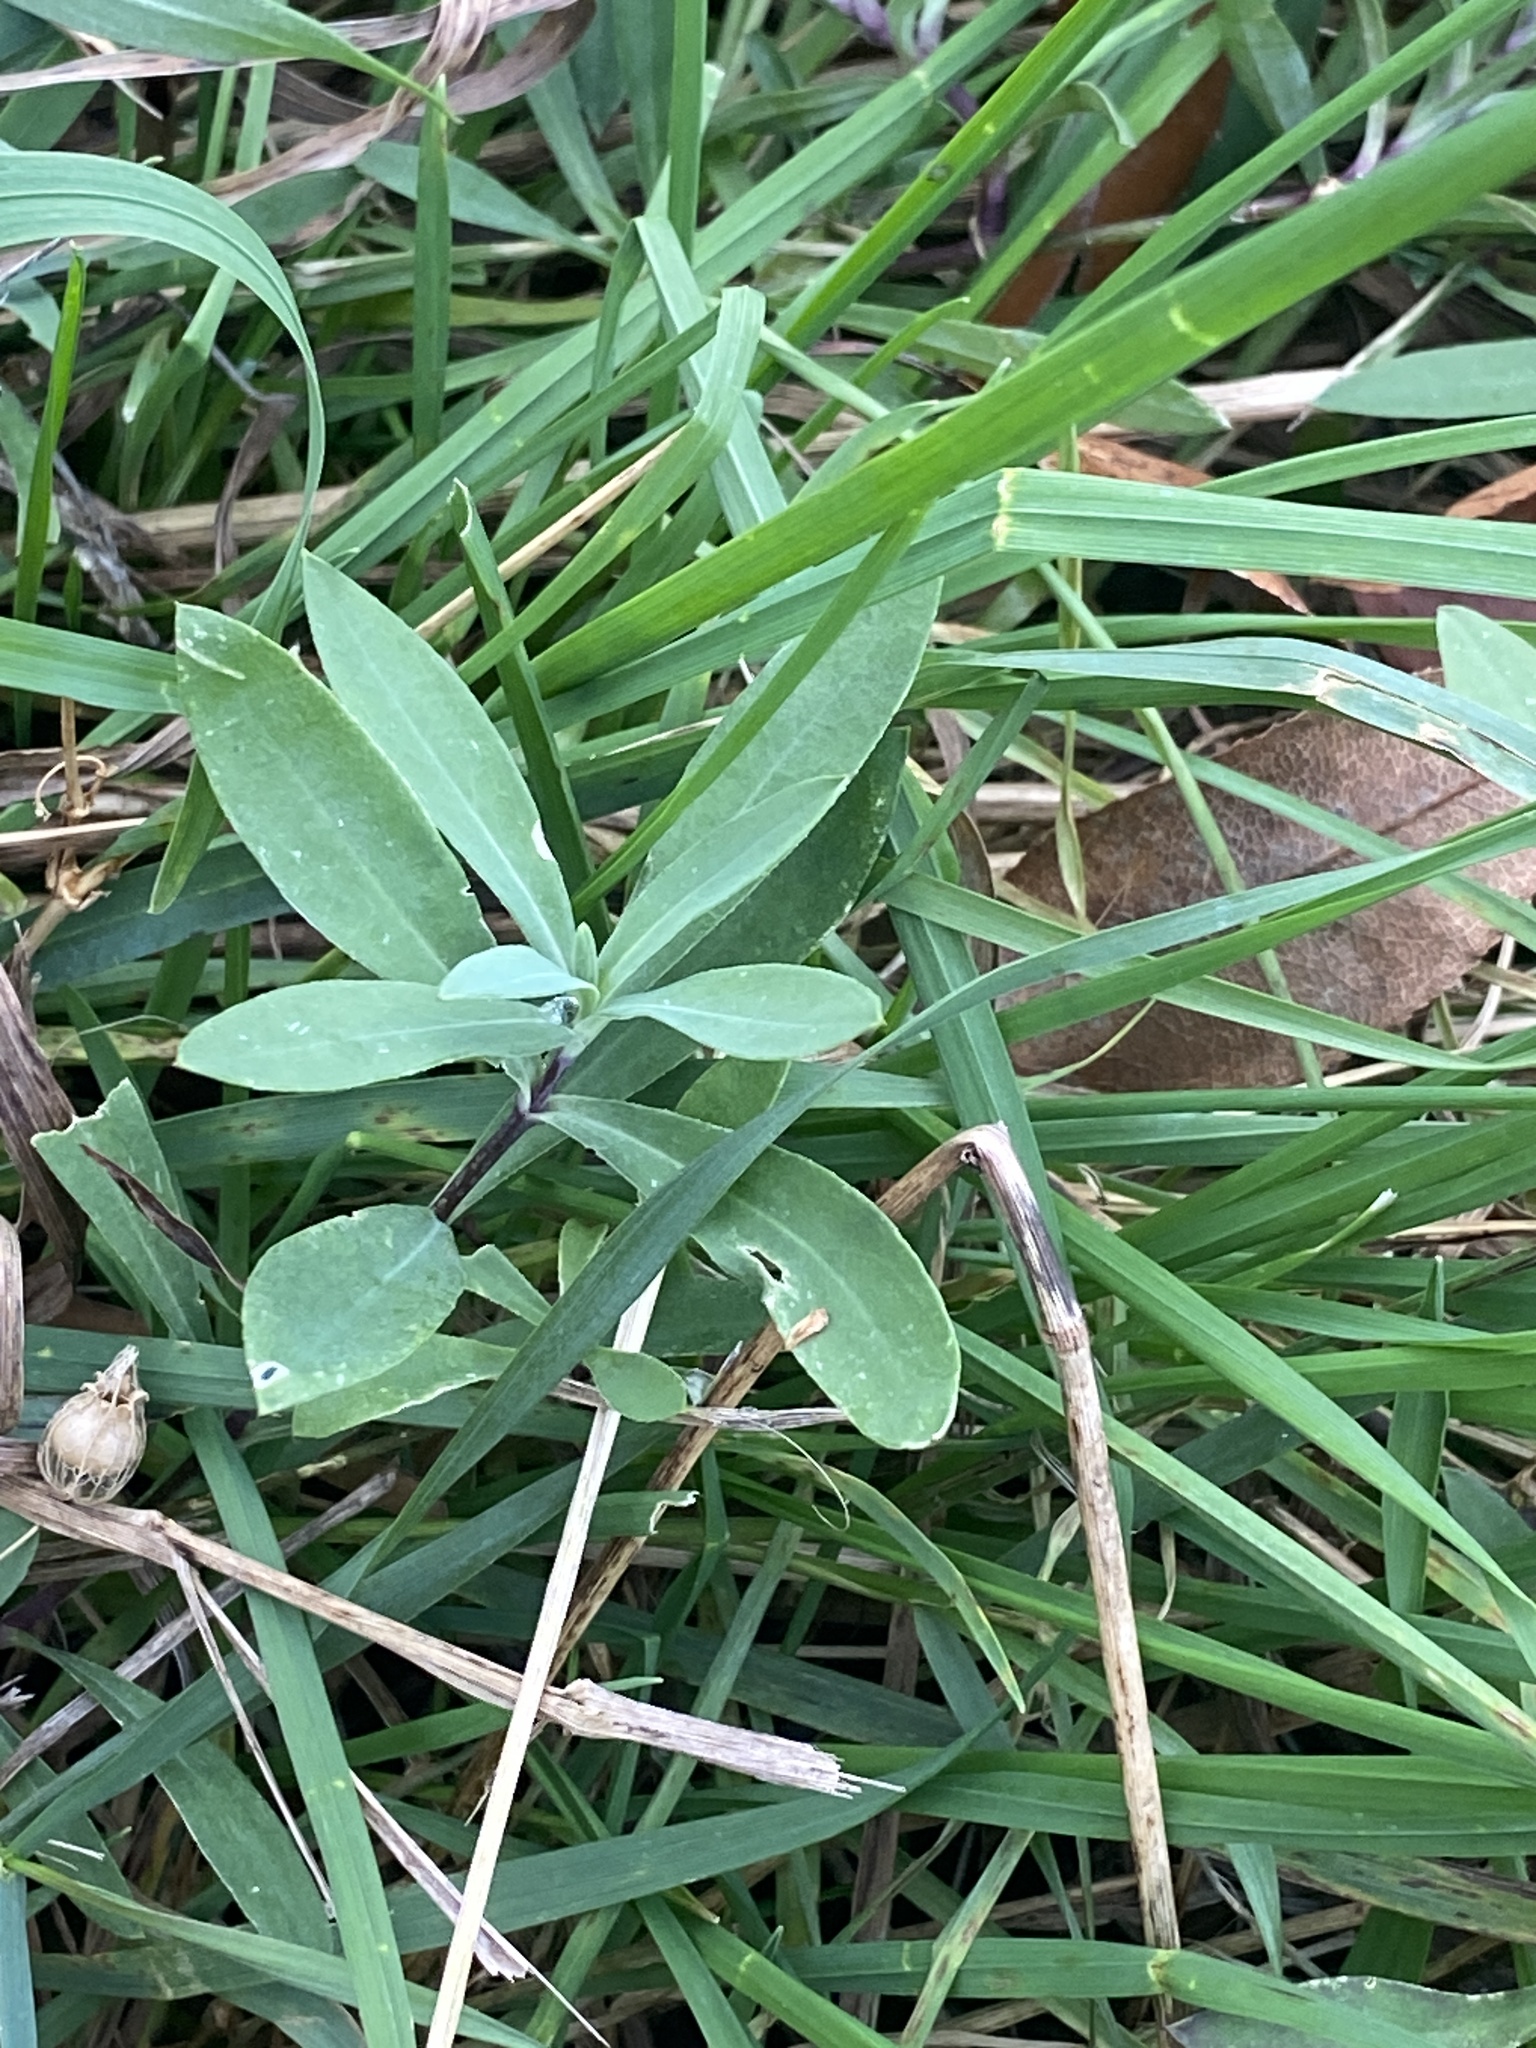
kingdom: Plantae
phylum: Tracheophyta
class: Magnoliopsida
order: Caryophyllales
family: Caryophyllaceae
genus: Silene
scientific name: Silene vulgaris
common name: Bladder campion
